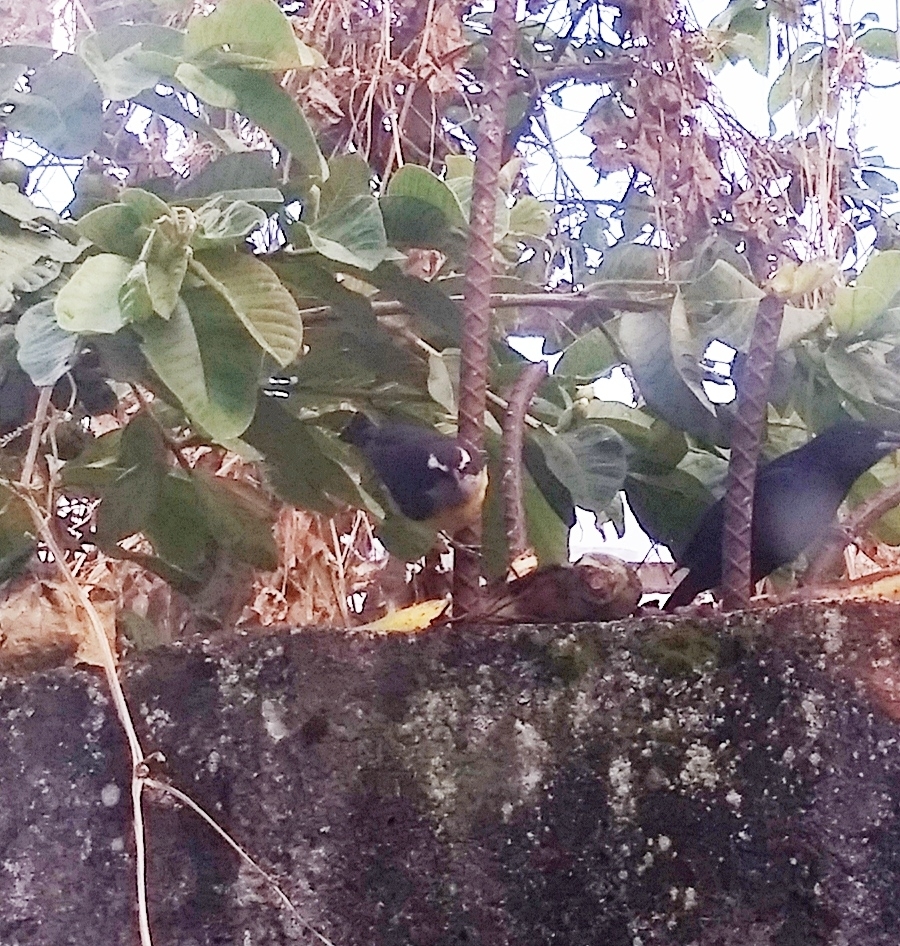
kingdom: Animalia
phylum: Chordata
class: Aves
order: Passeriformes
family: Thraupidae
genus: Coereba
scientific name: Coereba flaveola
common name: Bananaquit
